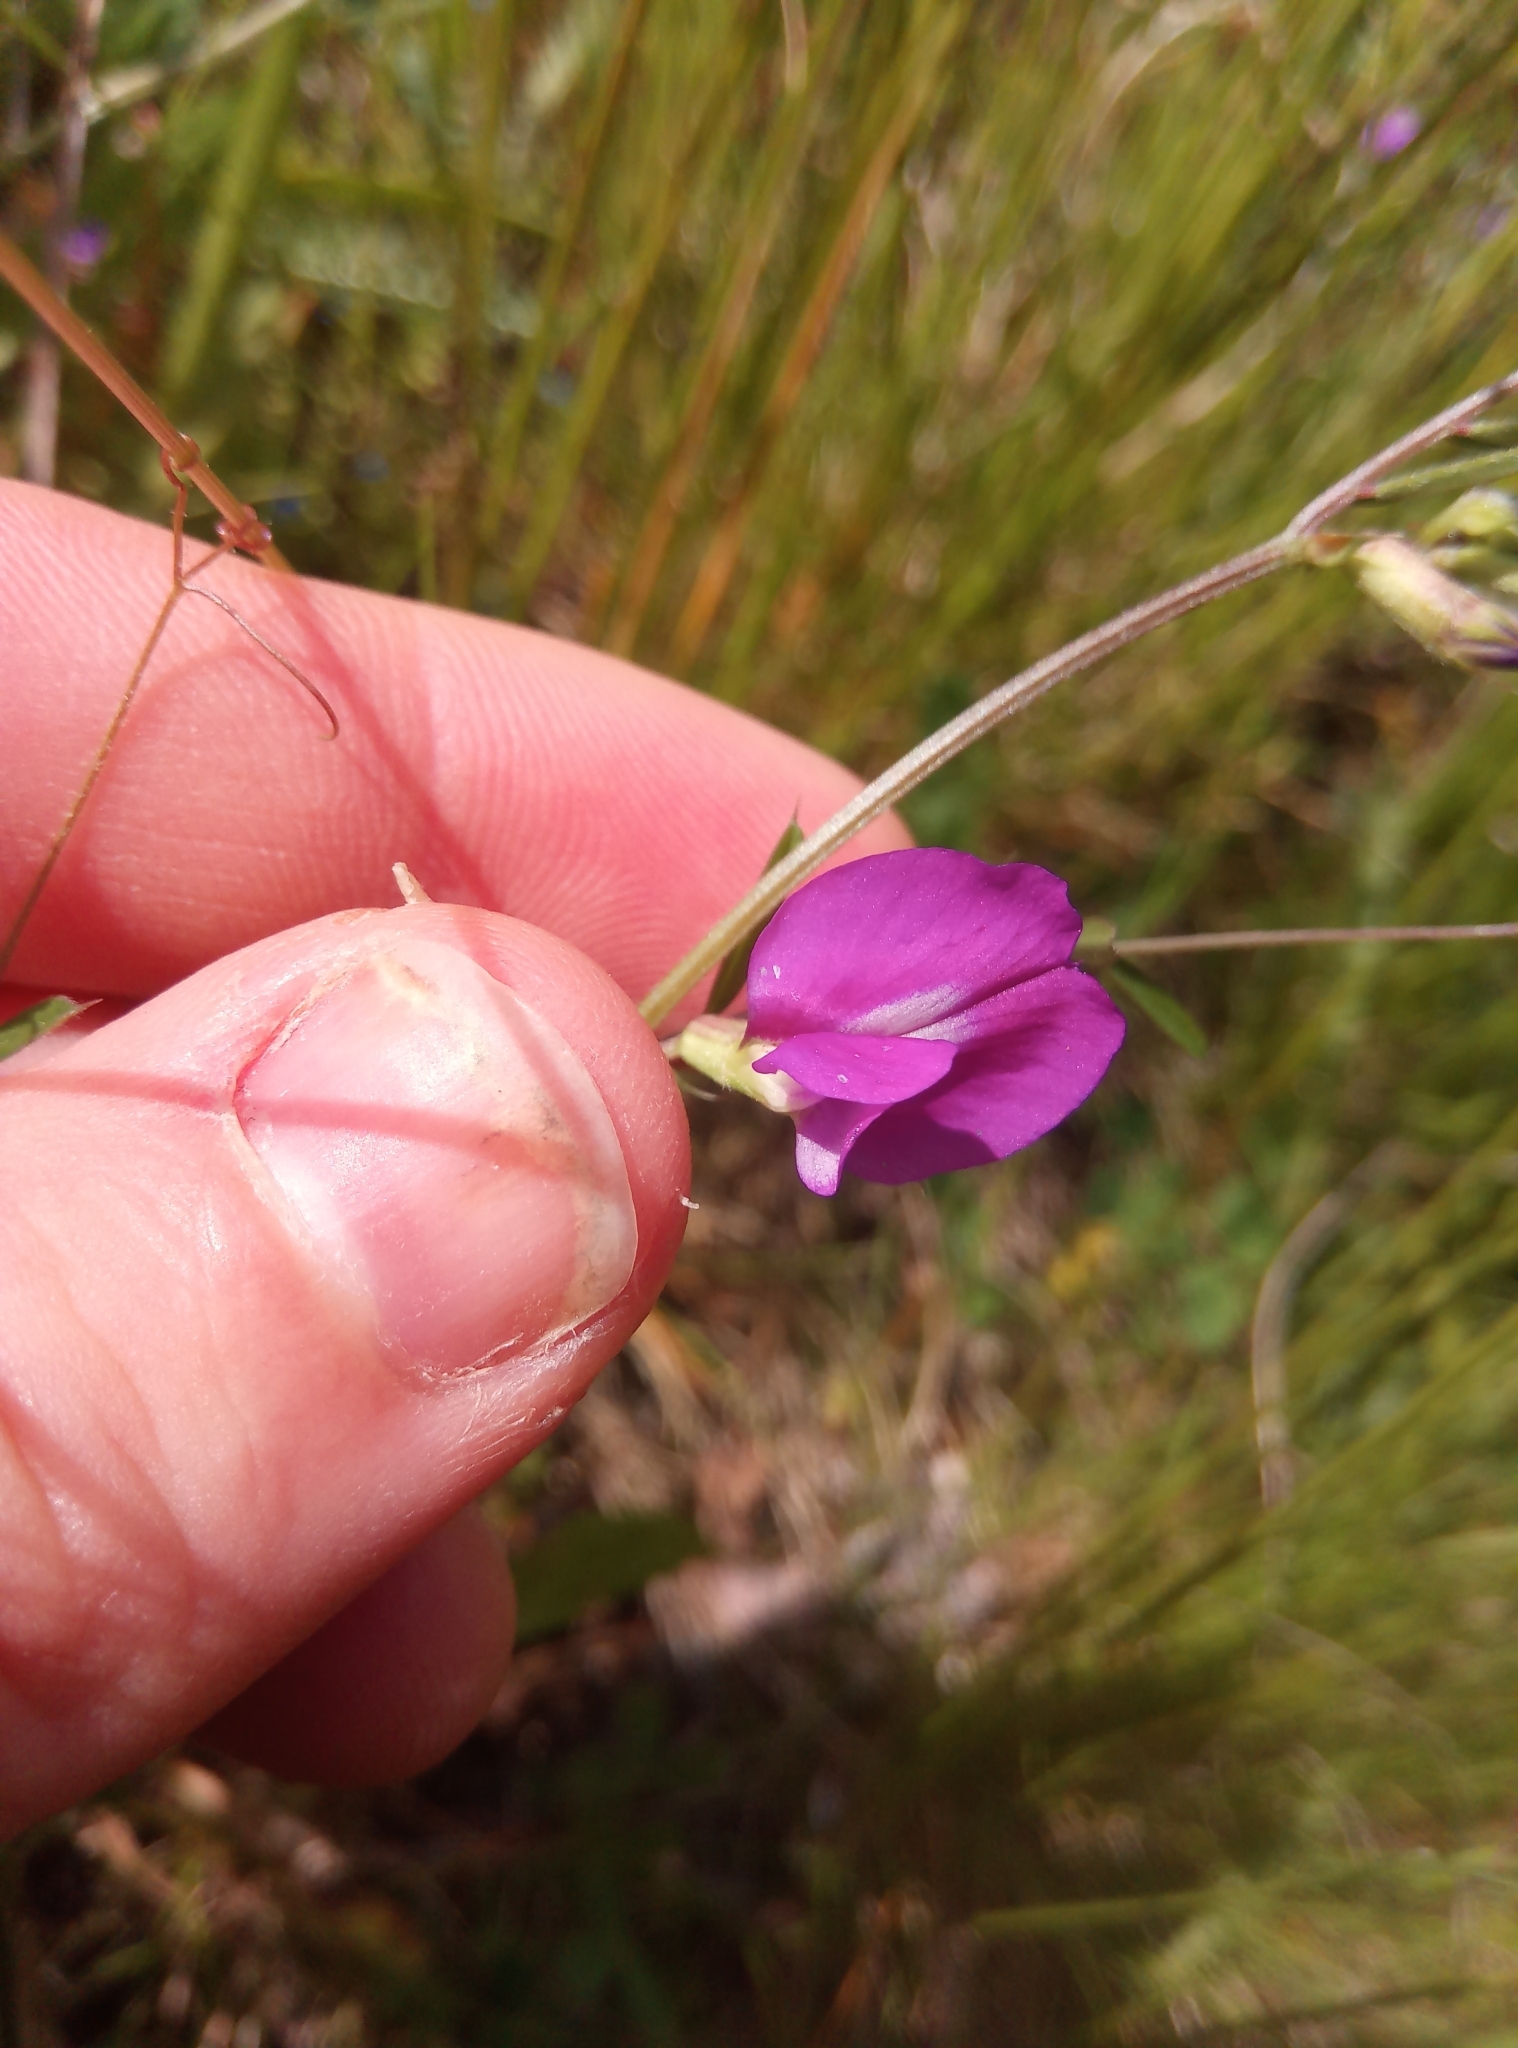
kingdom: Plantae
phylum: Tracheophyta
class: Magnoliopsida
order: Fabales
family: Fabaceae
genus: Vicia
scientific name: Vicia sativa
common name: Garden vetch
